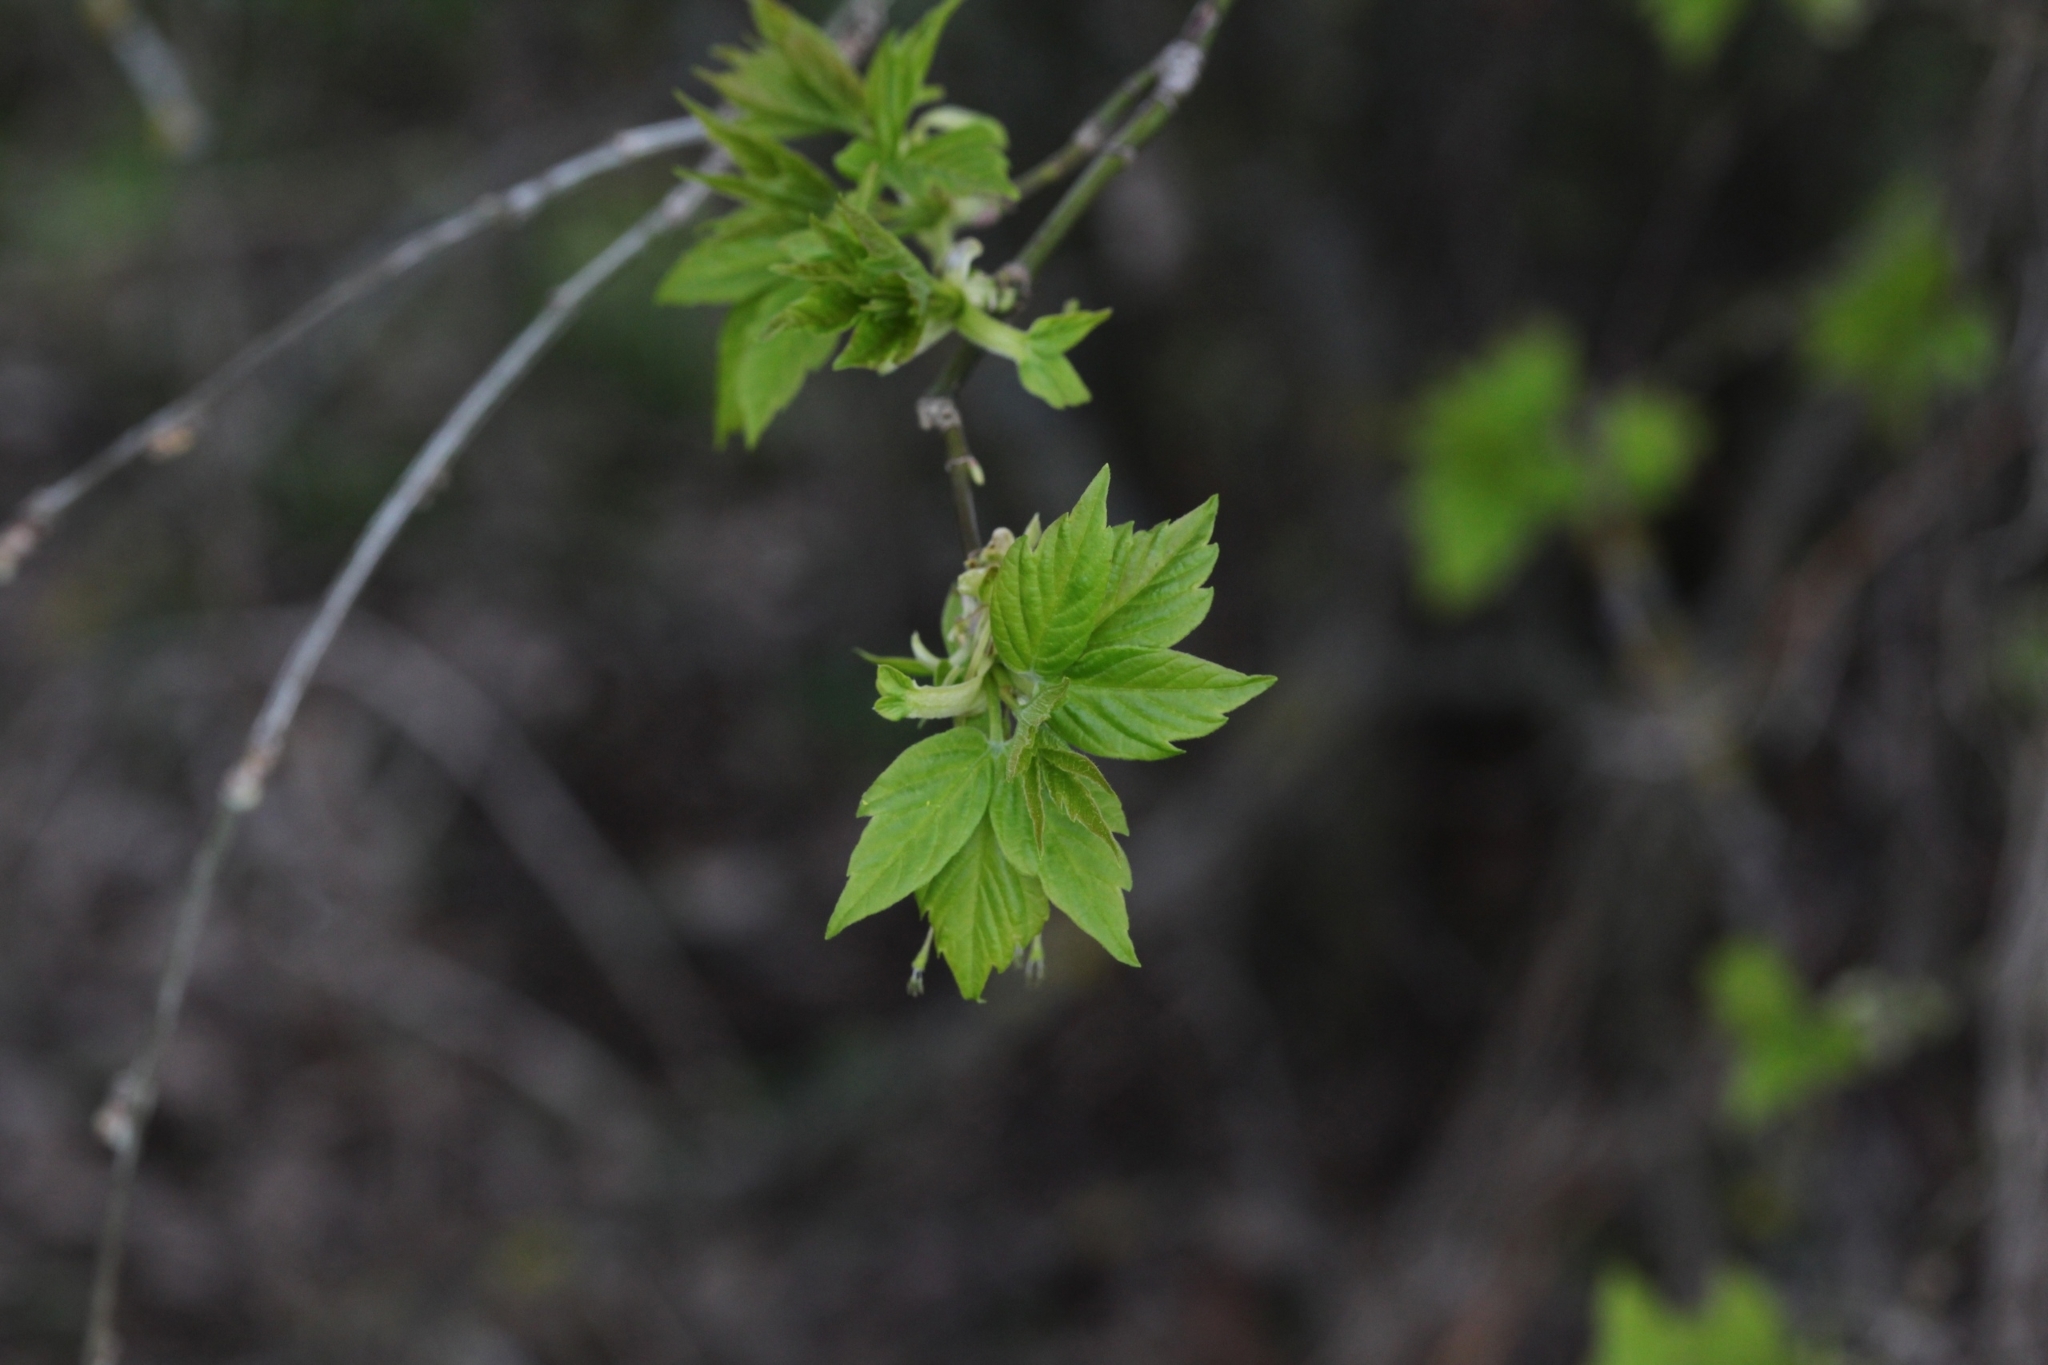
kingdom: Plantae
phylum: Tracheophyta
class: Magnoliopsida
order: Sapindales
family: Sapindaceae
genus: Acer
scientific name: Acer negundo
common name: Ashleaf maple
